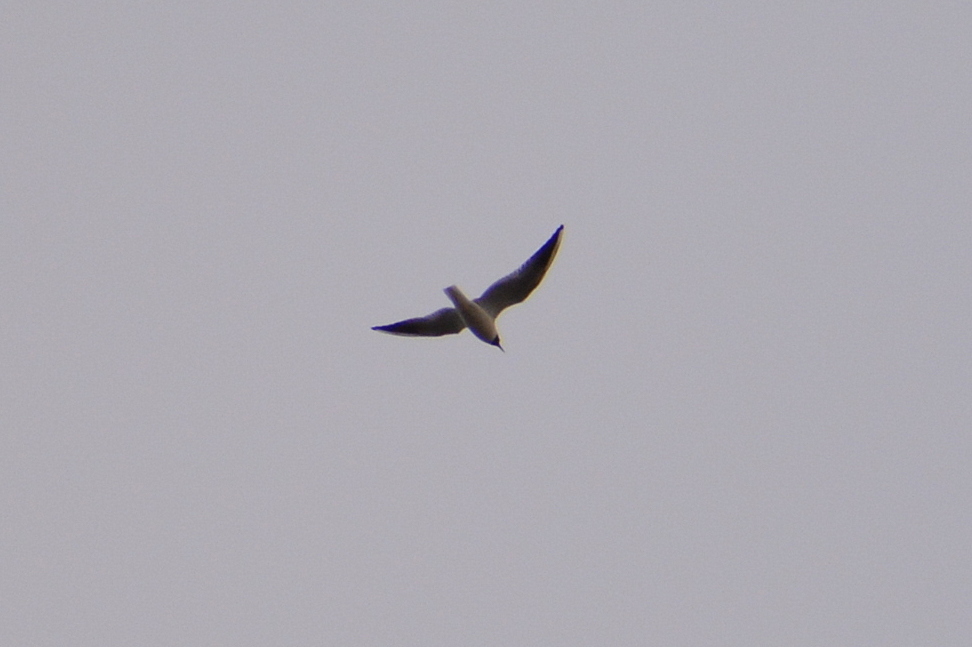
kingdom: Animalia
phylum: Chordata
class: Aves
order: Charadriiformes
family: Laridae
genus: Chroicocephalus
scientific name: Chroicocephalus ridibundus
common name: Black-headed gull
